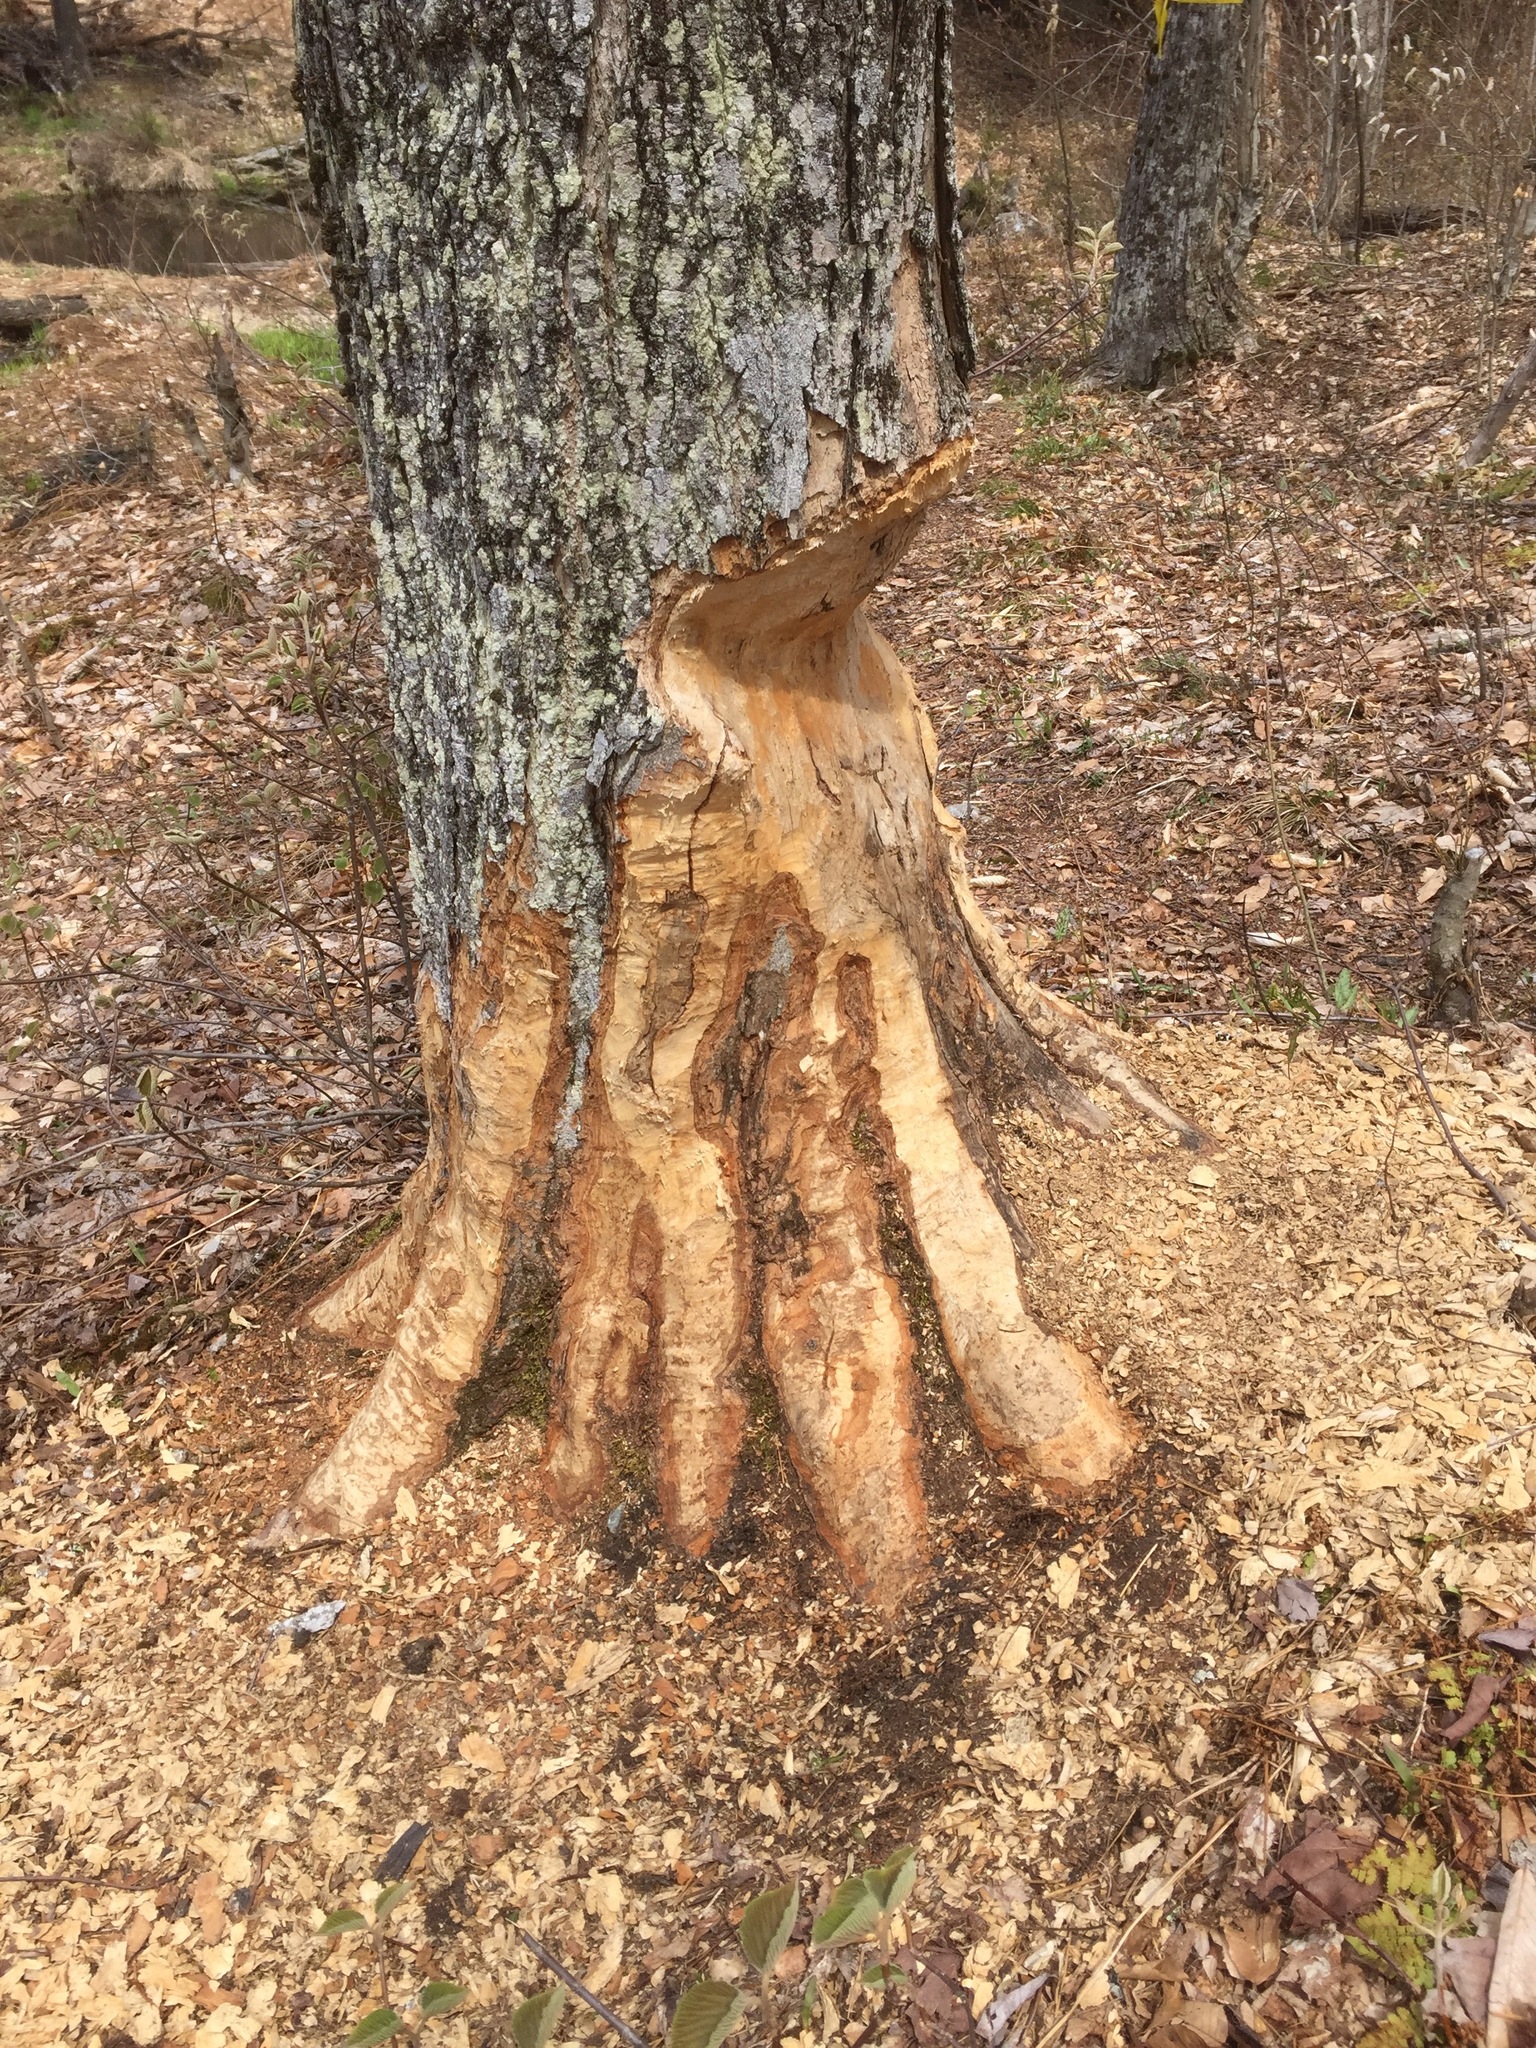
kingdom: Animalia
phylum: Chordata
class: Mammalia
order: Rodentia
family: Castoridae
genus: Castor
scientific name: Castor canadensis
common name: American beaver
